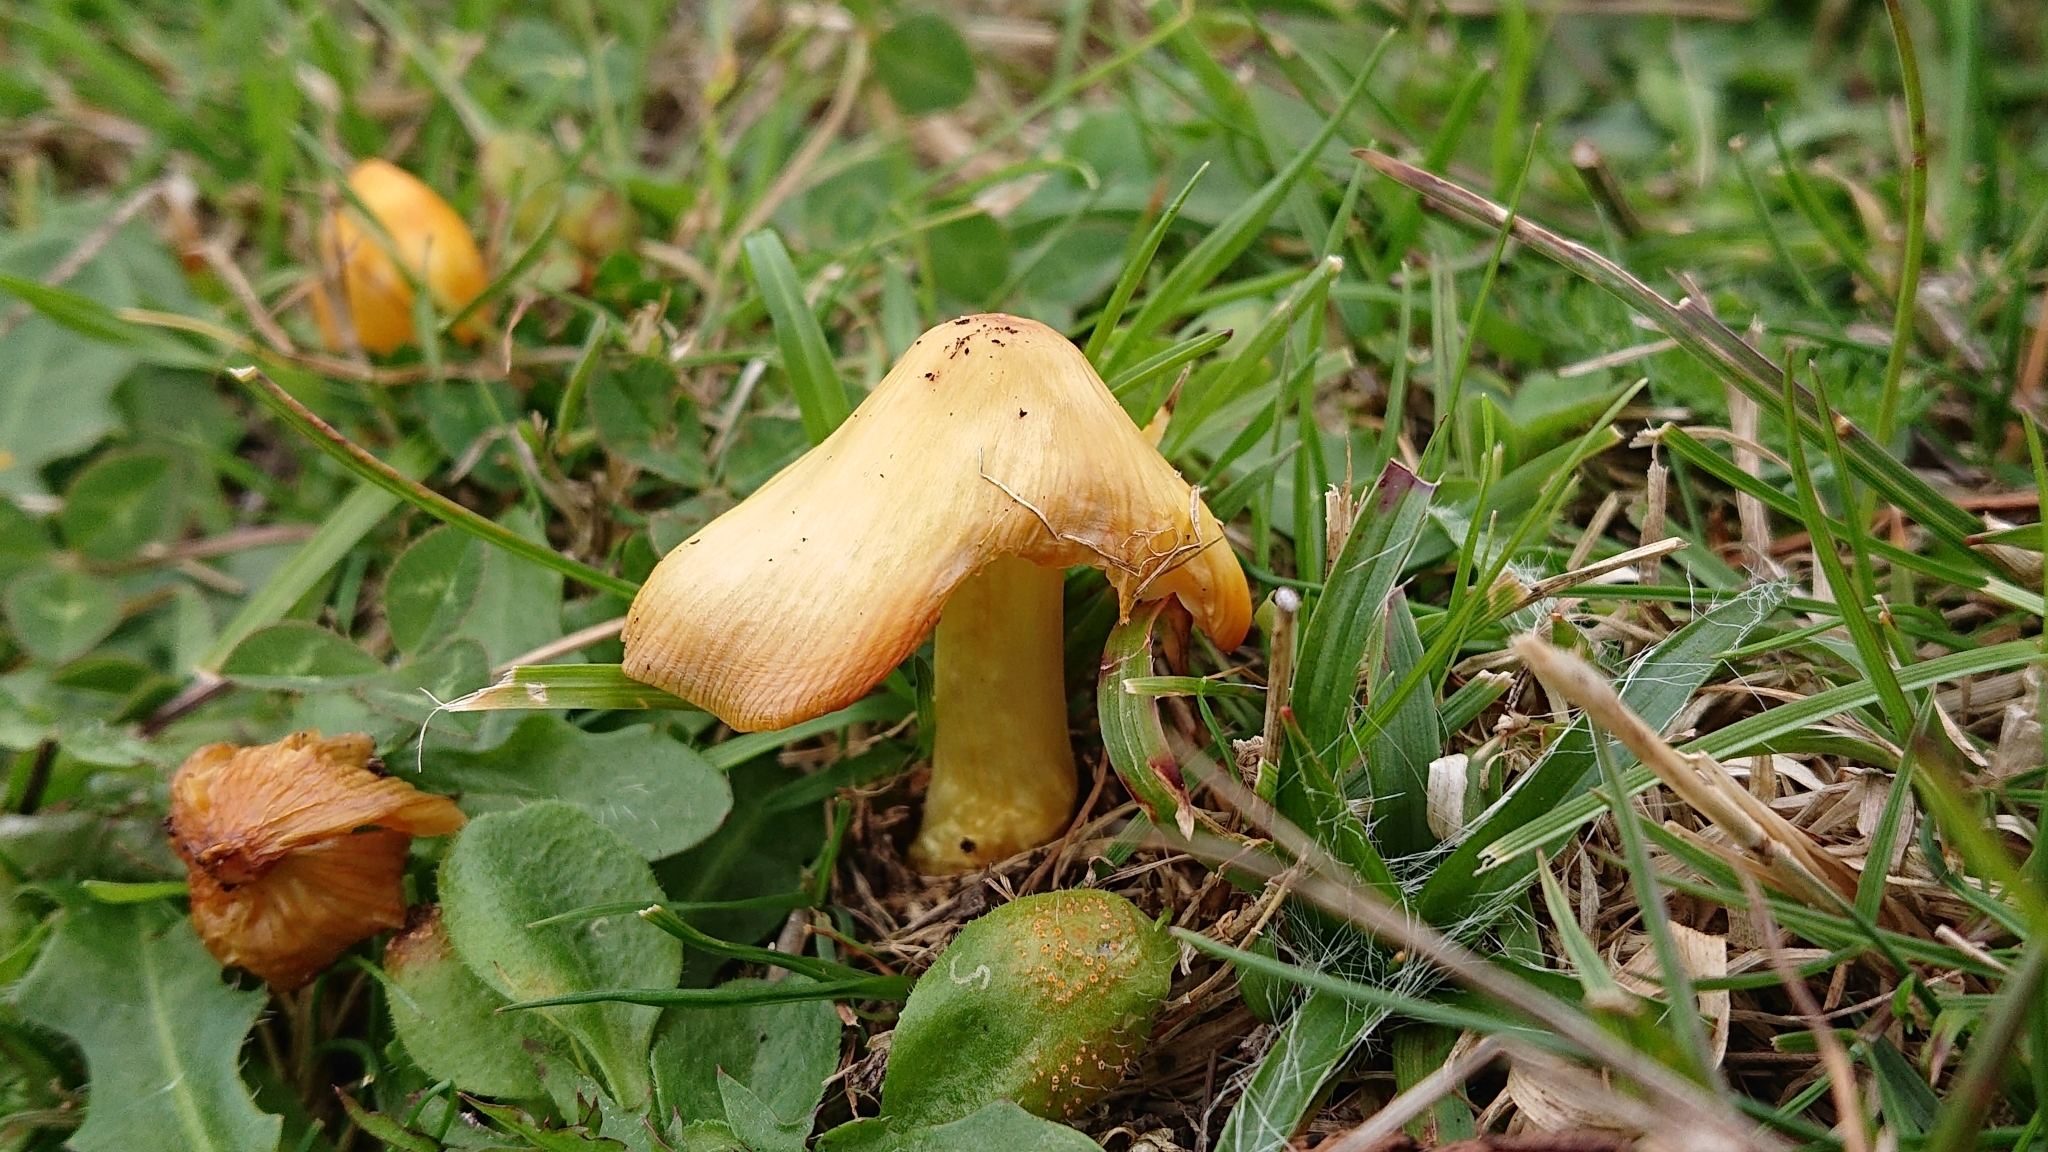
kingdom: Fungi
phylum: Basidiomycota
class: Agaricomycetes
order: Agaricales
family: Hygrophoraceae
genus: Hygrocybe
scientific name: Hygrocybe acutoconica
